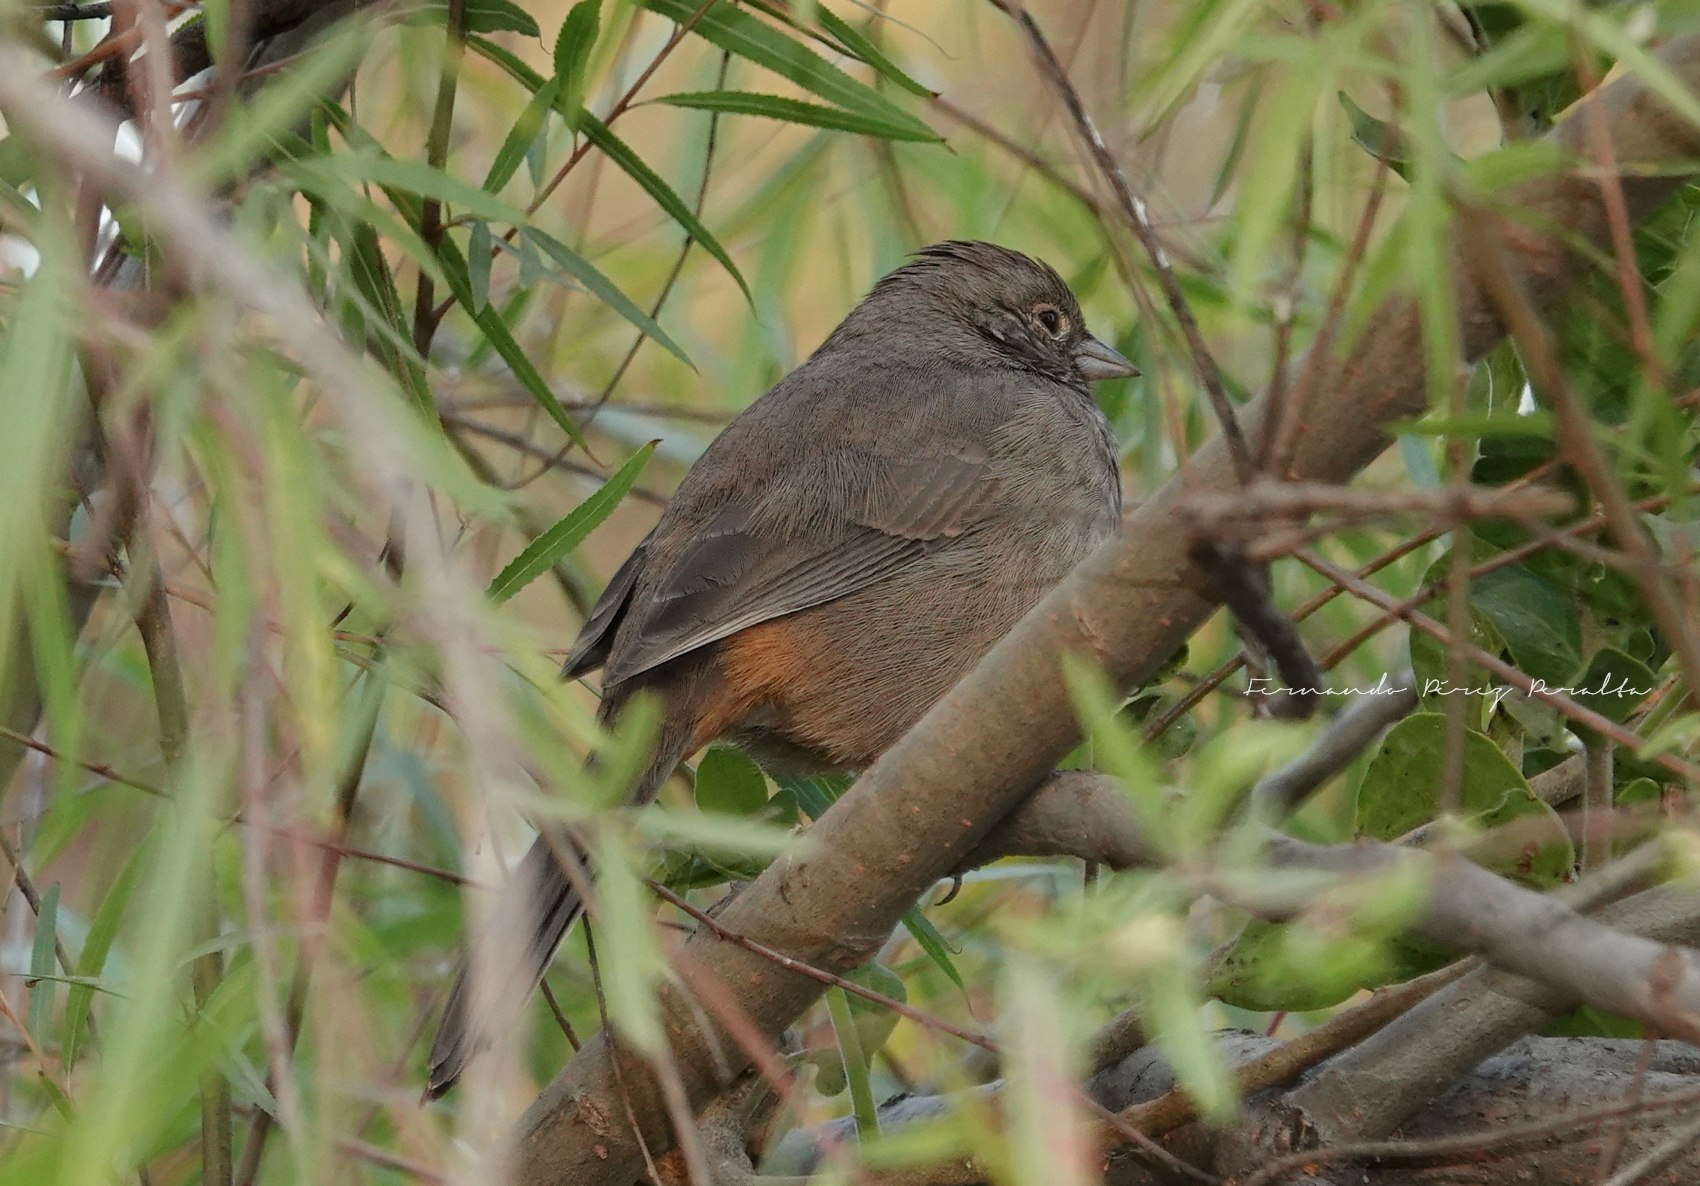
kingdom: Animalia
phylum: Chordata
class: Aves
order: Passeriformes
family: Passerellidae
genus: Melozone
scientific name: Melozone fusca
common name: Canyon towhee
